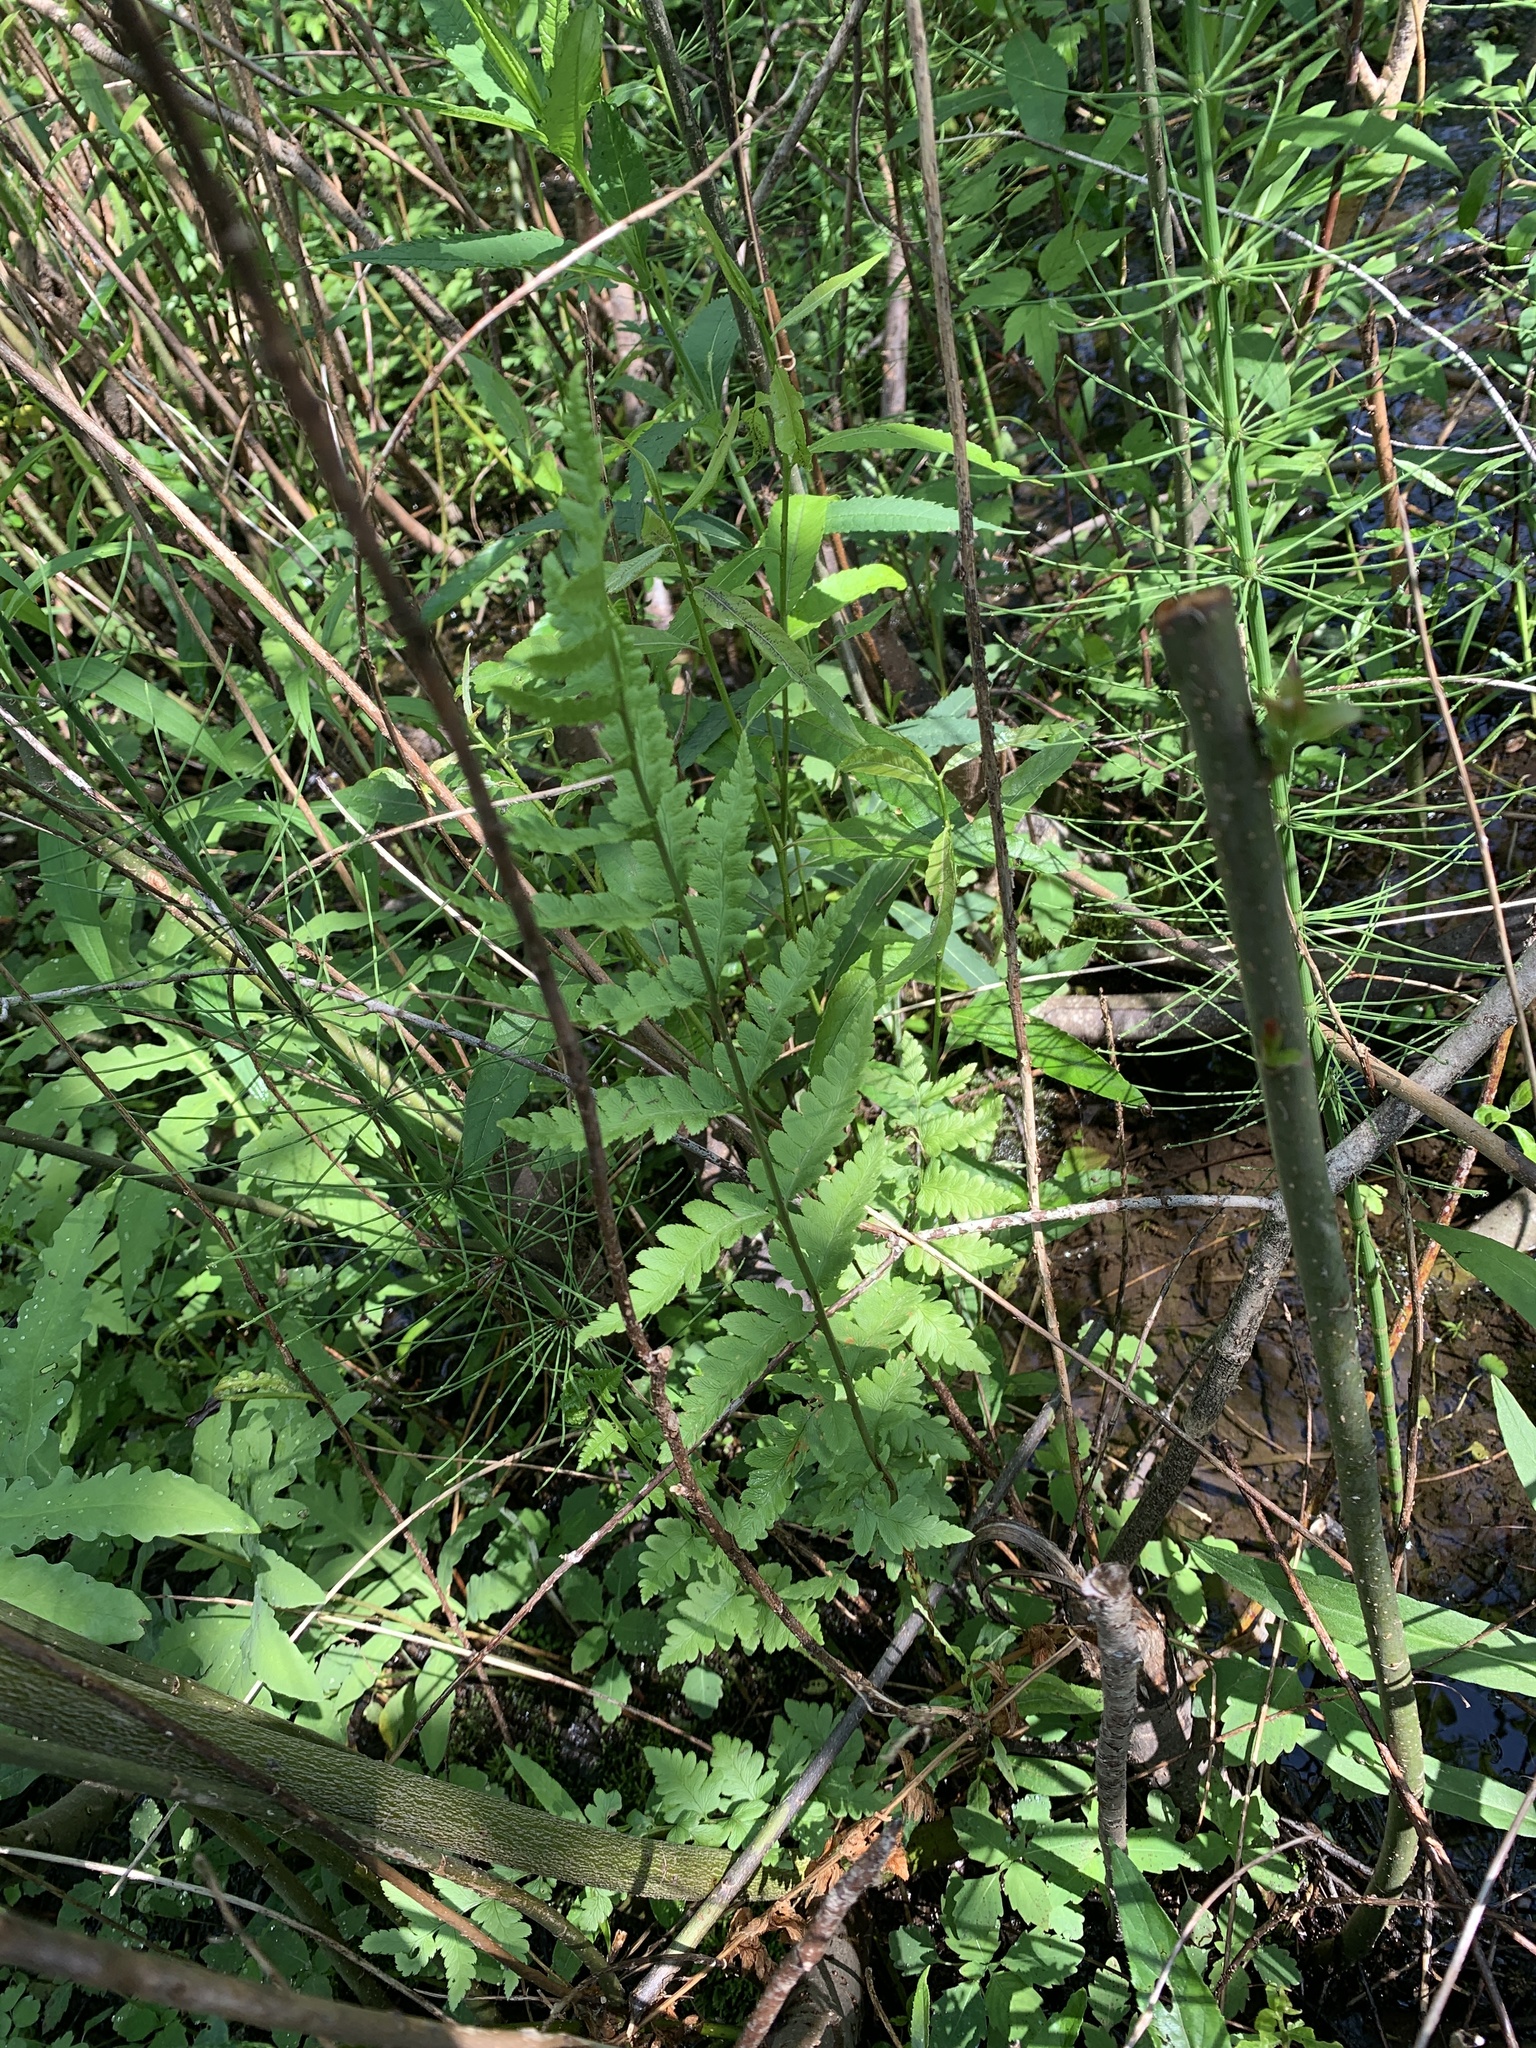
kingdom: Plantae
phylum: Tracheophyta
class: Polypodiopsida
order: Polypodiales
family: Dryopteridaceae
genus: Dryopteris
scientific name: Dryopteris cristata
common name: Crested wood fern
